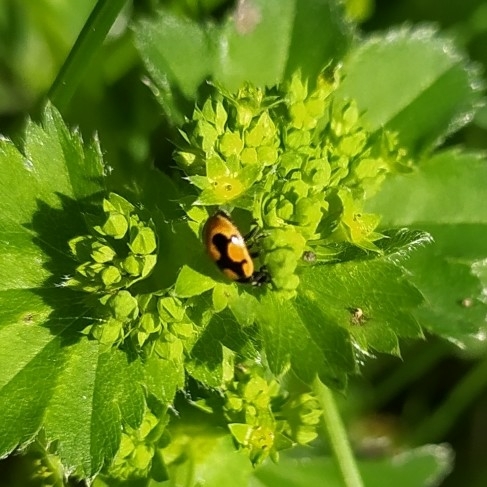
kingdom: Animalia
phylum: Arthropoda
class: Insecta
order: Coleoptera
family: Coccinellidae
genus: Coccinella
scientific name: Coccinella hieroglyphica
